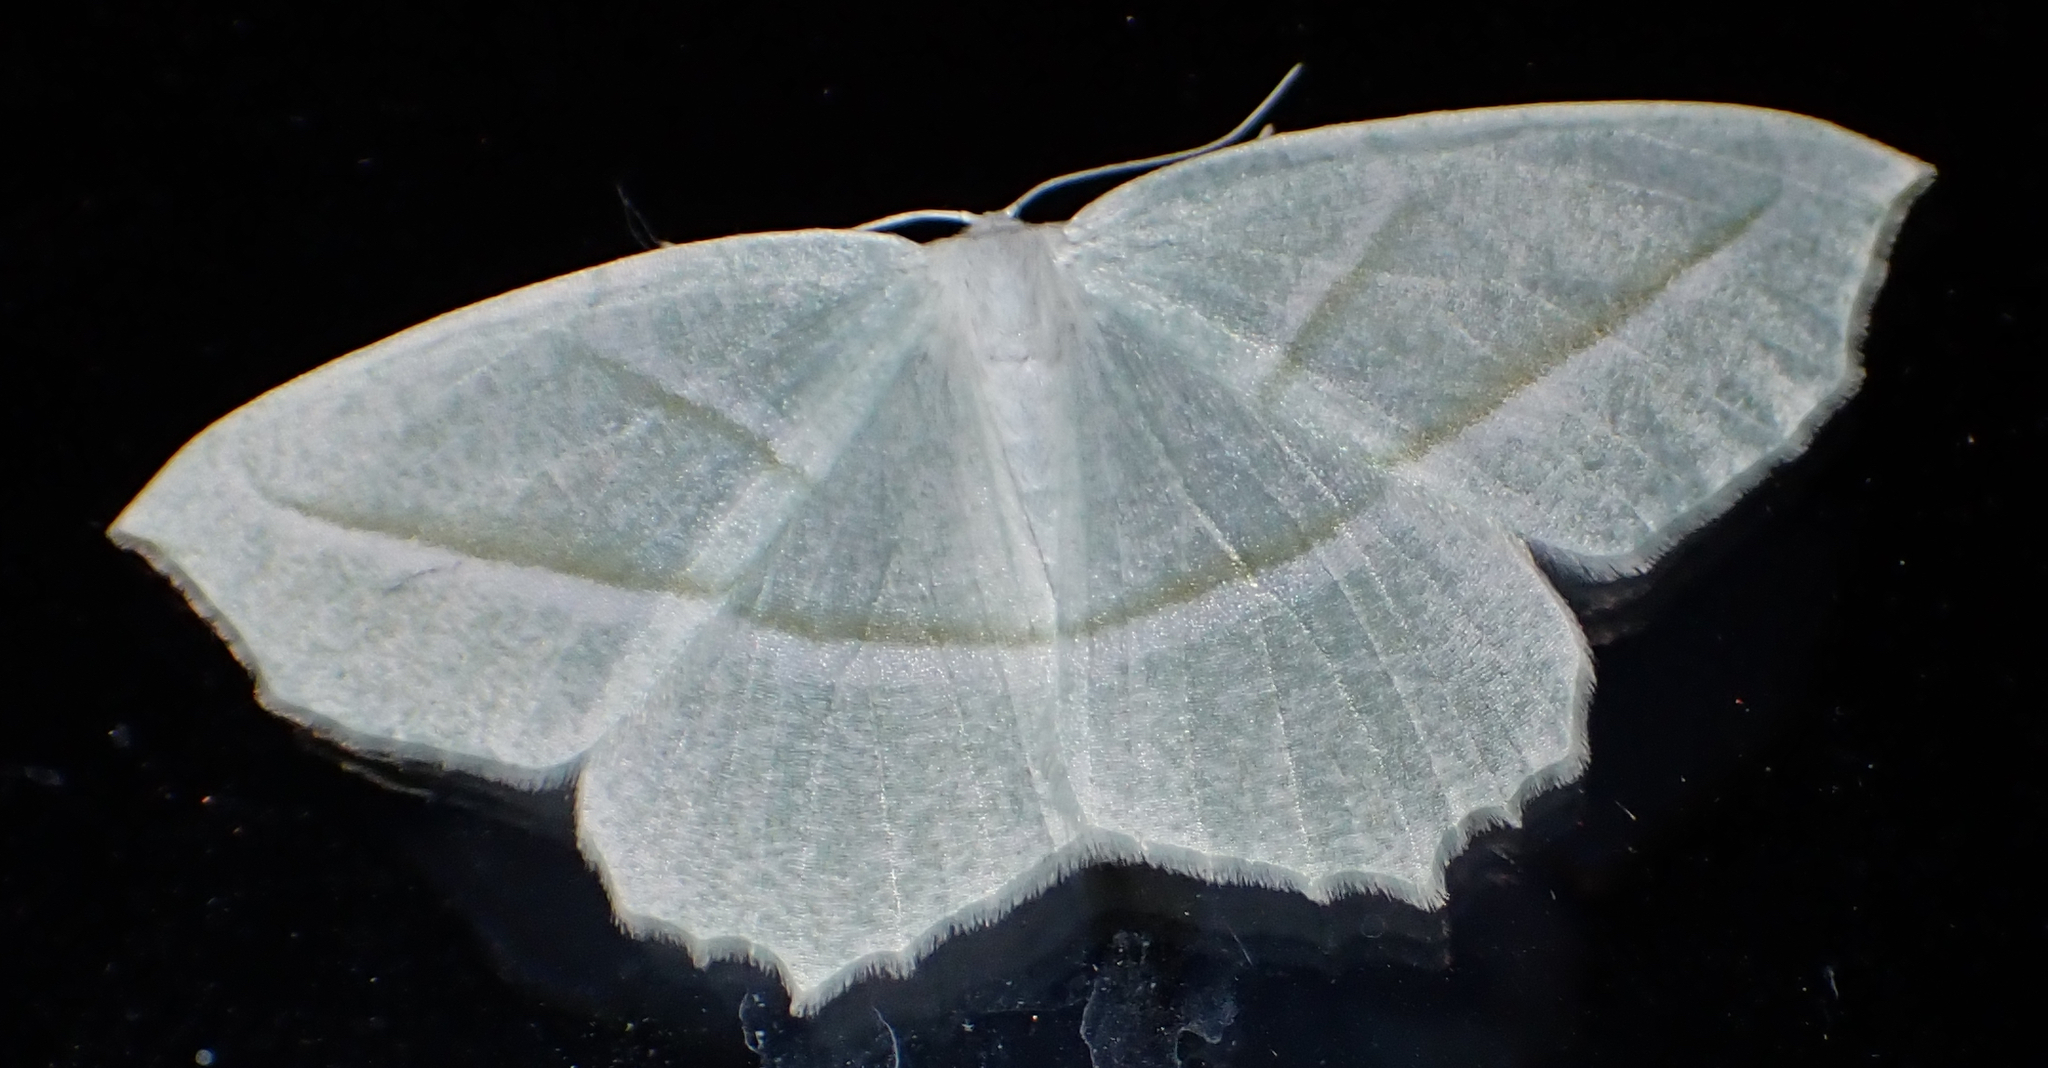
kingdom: Animalia
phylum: Arthropoda
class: Insecta
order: Lepidoptera
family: Geometridae
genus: Campaea
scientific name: Campaea perlata
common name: Fringed looper
